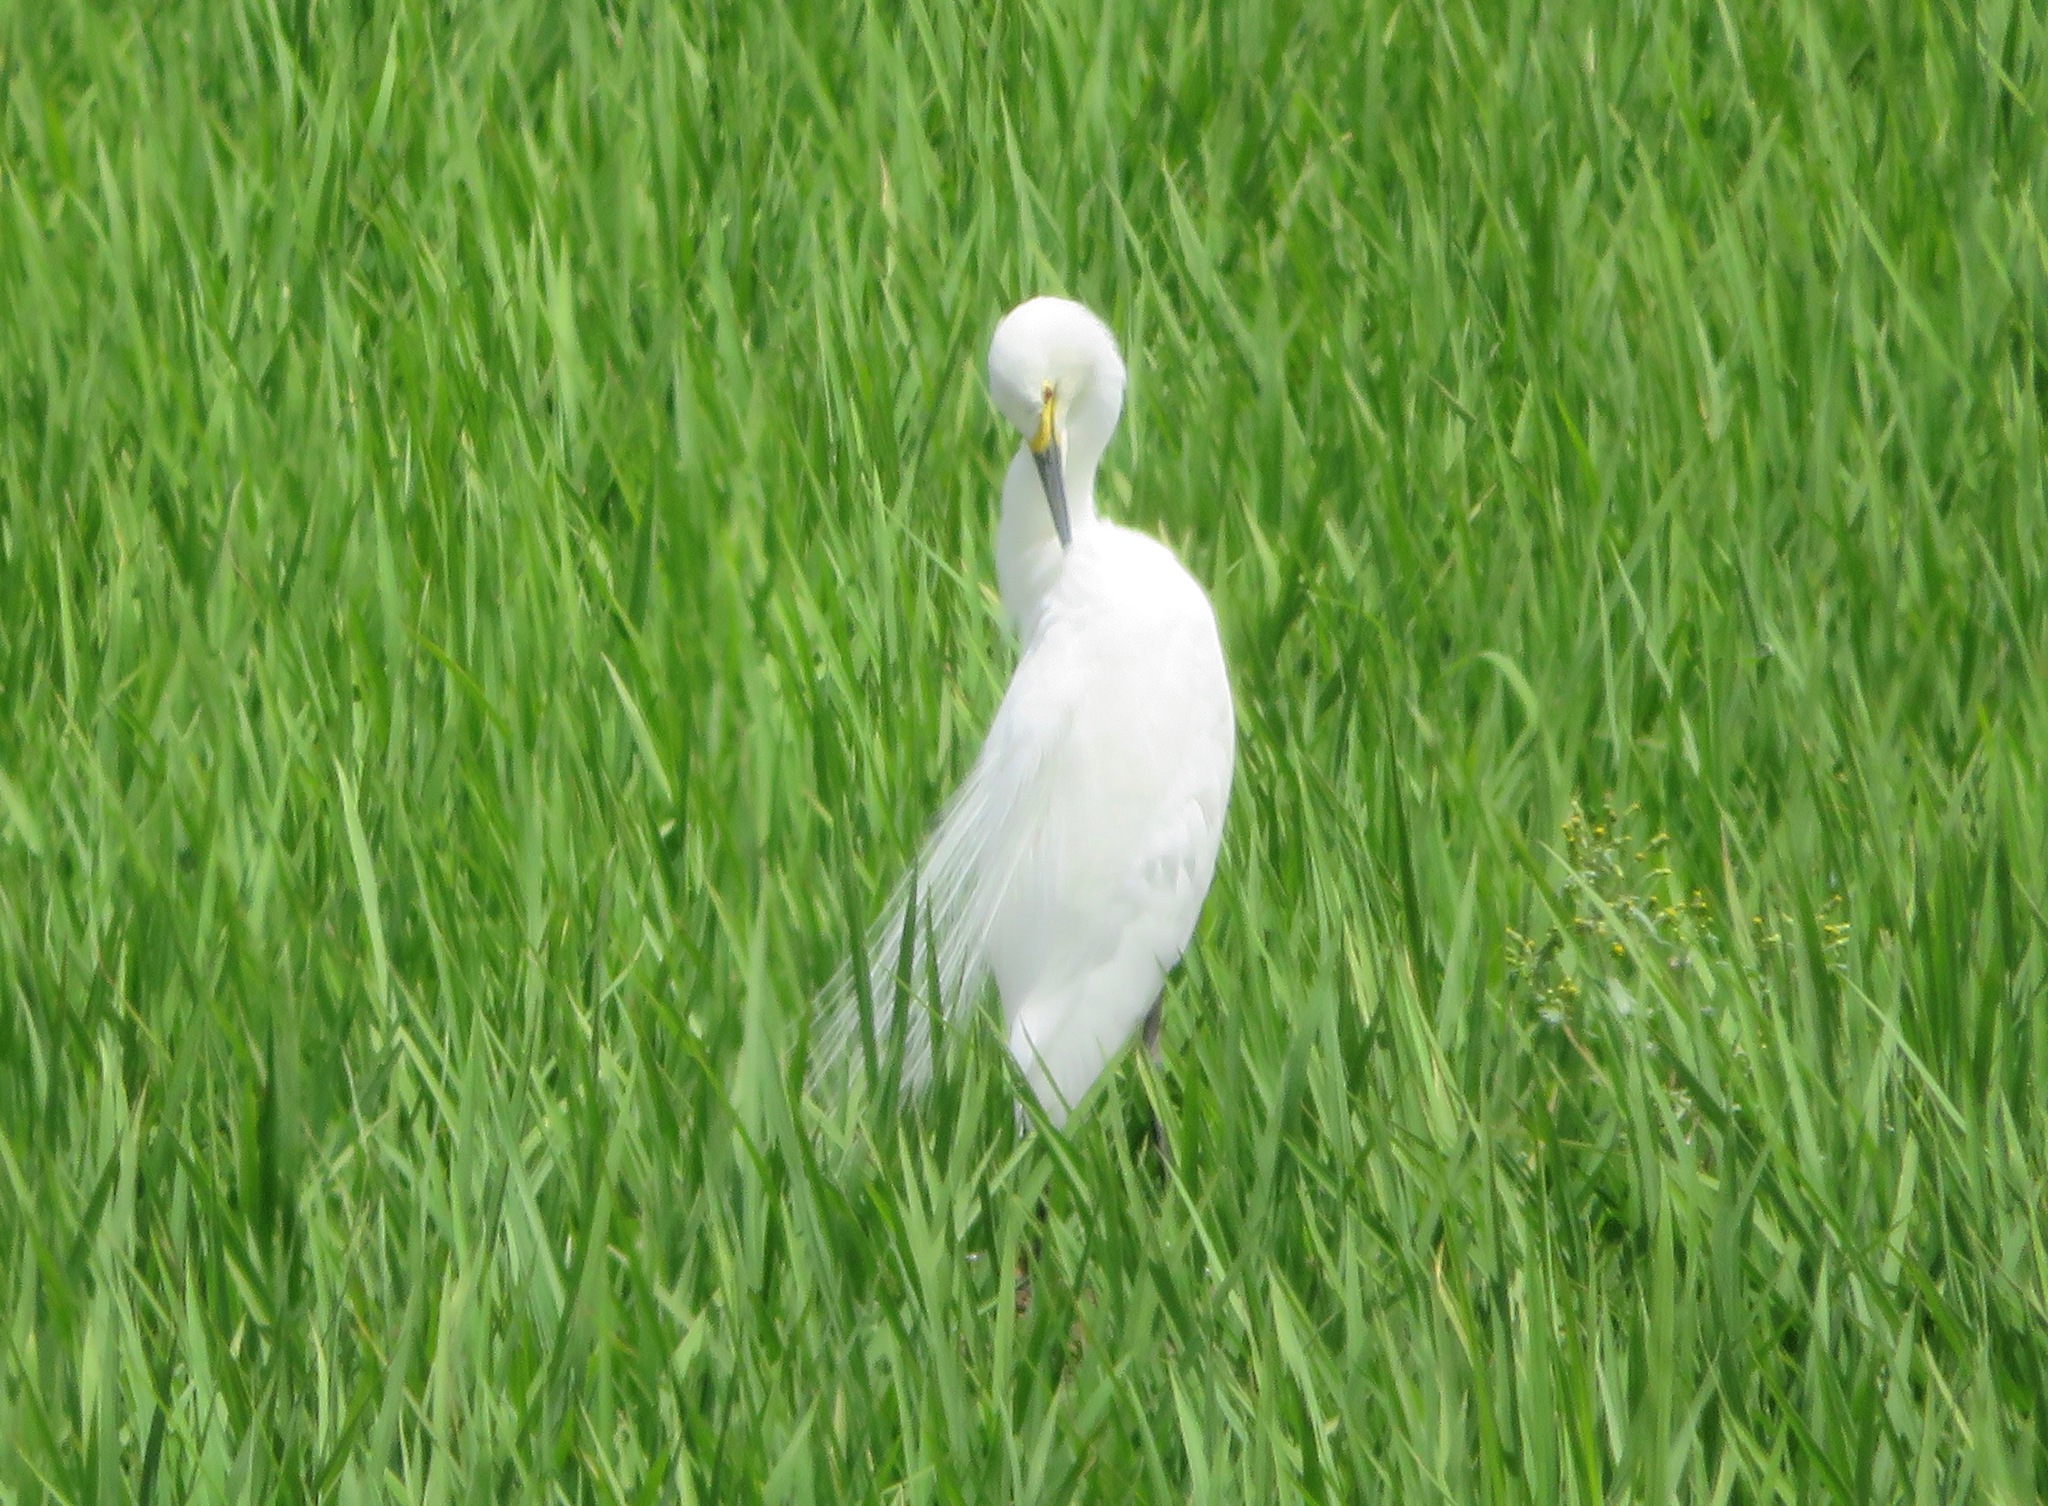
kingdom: Animalia
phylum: Chordata
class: Aves
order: Pelecaniformes
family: Ardeidae
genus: Egretta
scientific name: Egretta garzetta
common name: Little egret
